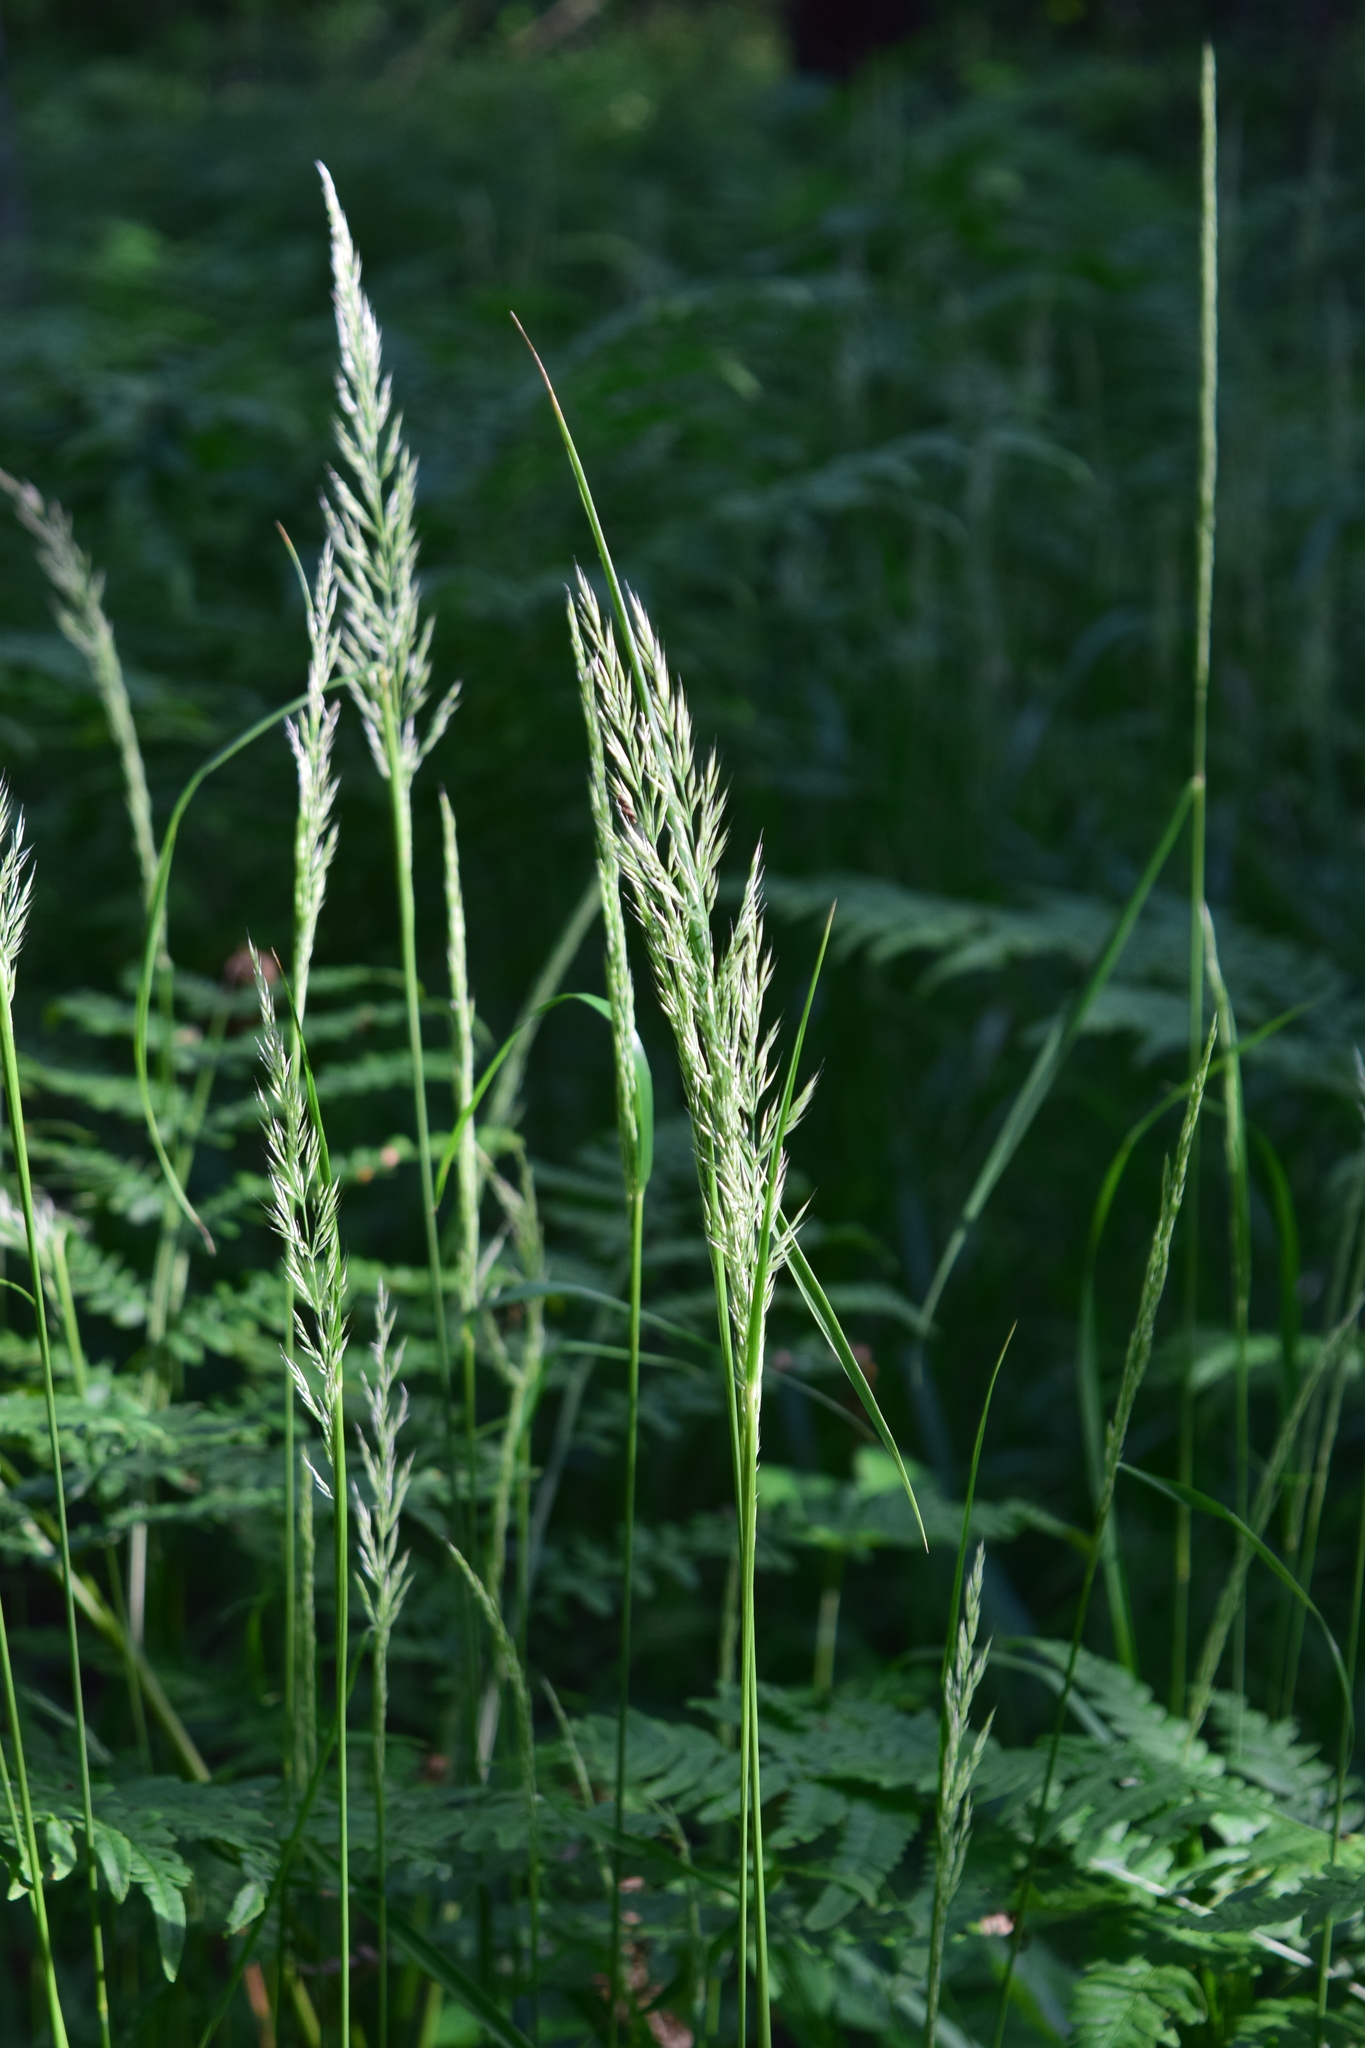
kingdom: Plantae
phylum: Tracheophyta
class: Liliopsida
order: Poales
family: Poaceae
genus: Calamagrostis
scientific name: Calamagrostis arundinacea
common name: Metskastik
